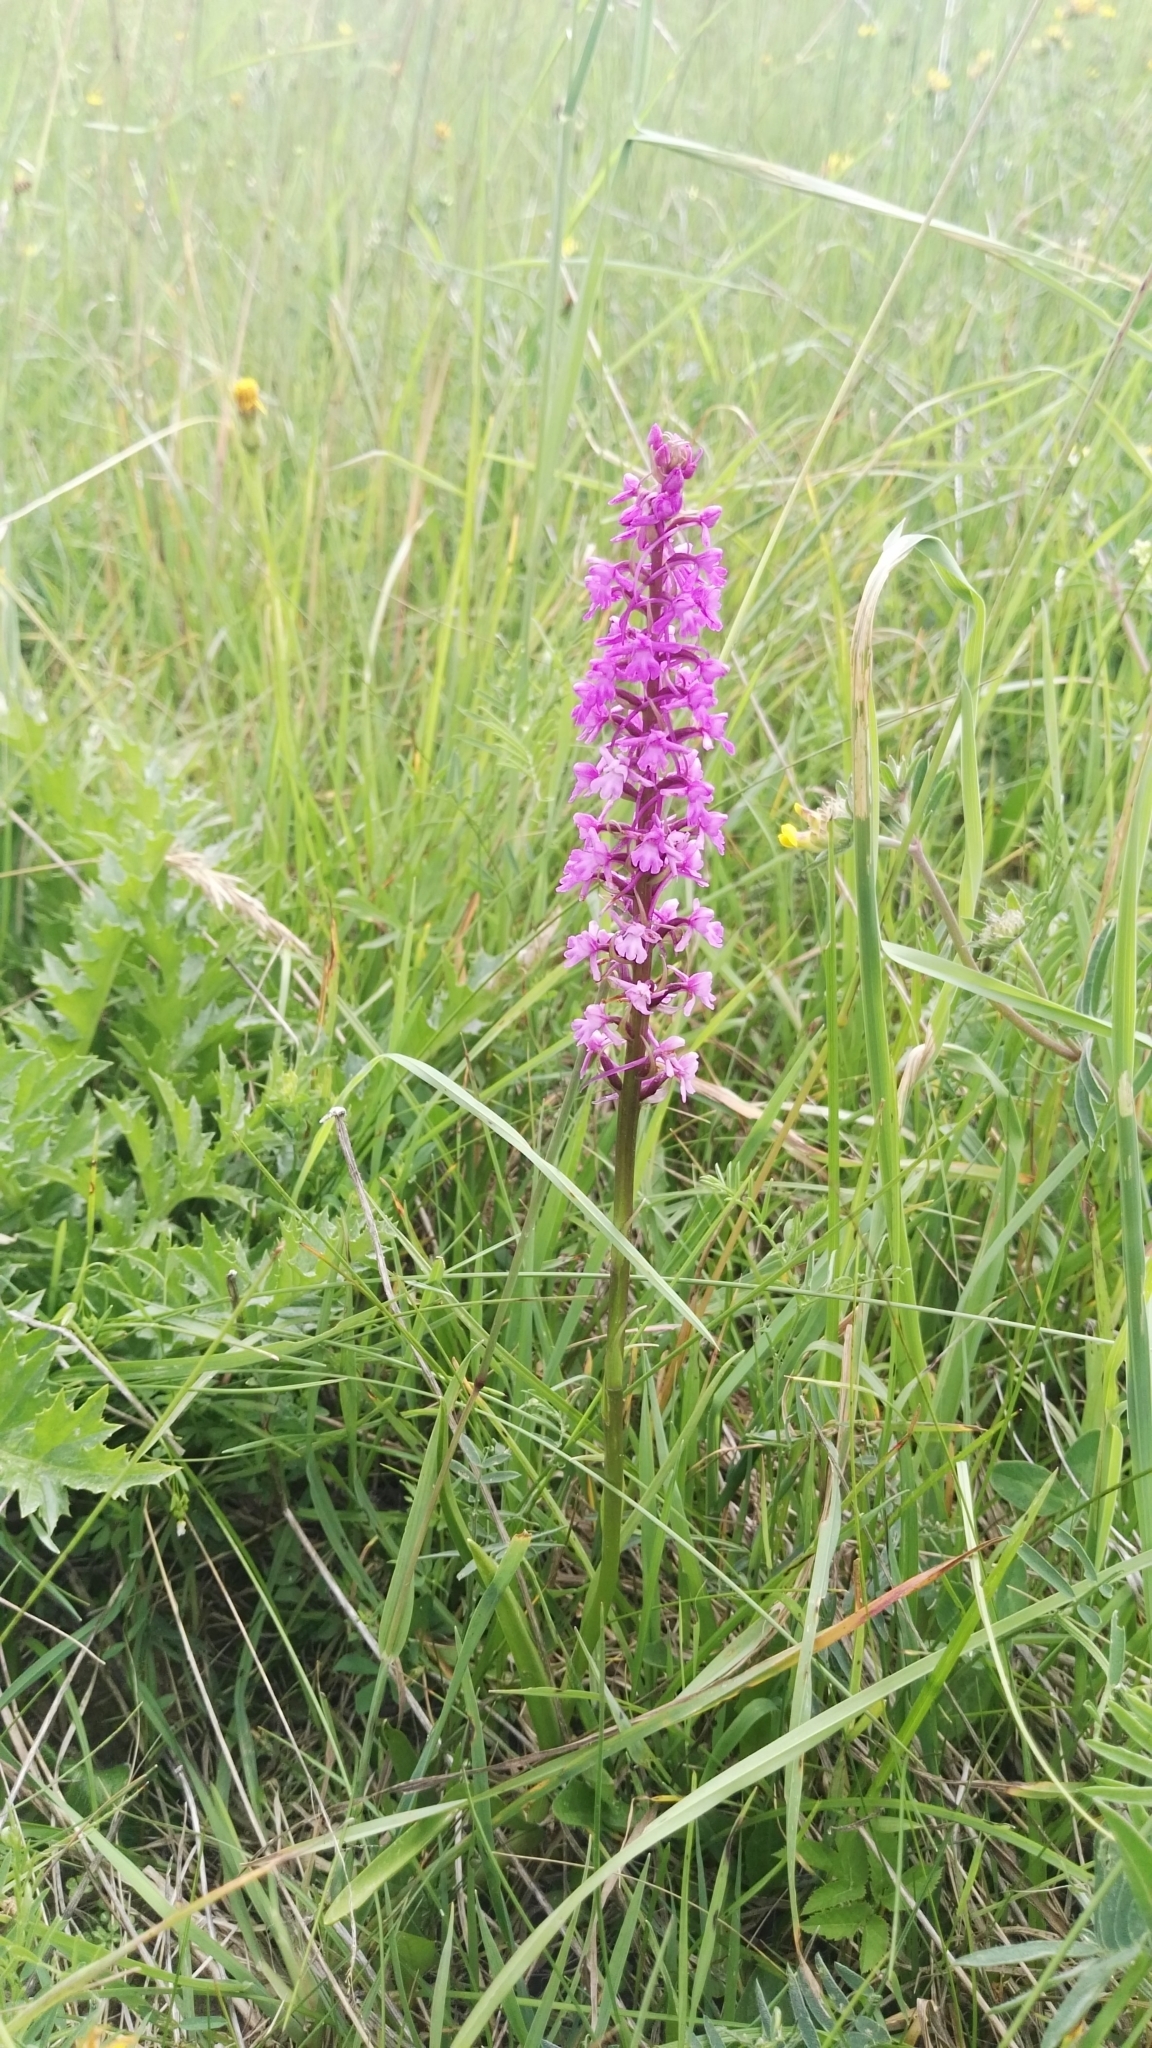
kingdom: Plantae
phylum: Tracheophyta
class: Liliopsida
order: Asparagales
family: Orchidaceae
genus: Gymnadenia
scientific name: Gymnadenia conopsea
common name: Fragrant orchid
